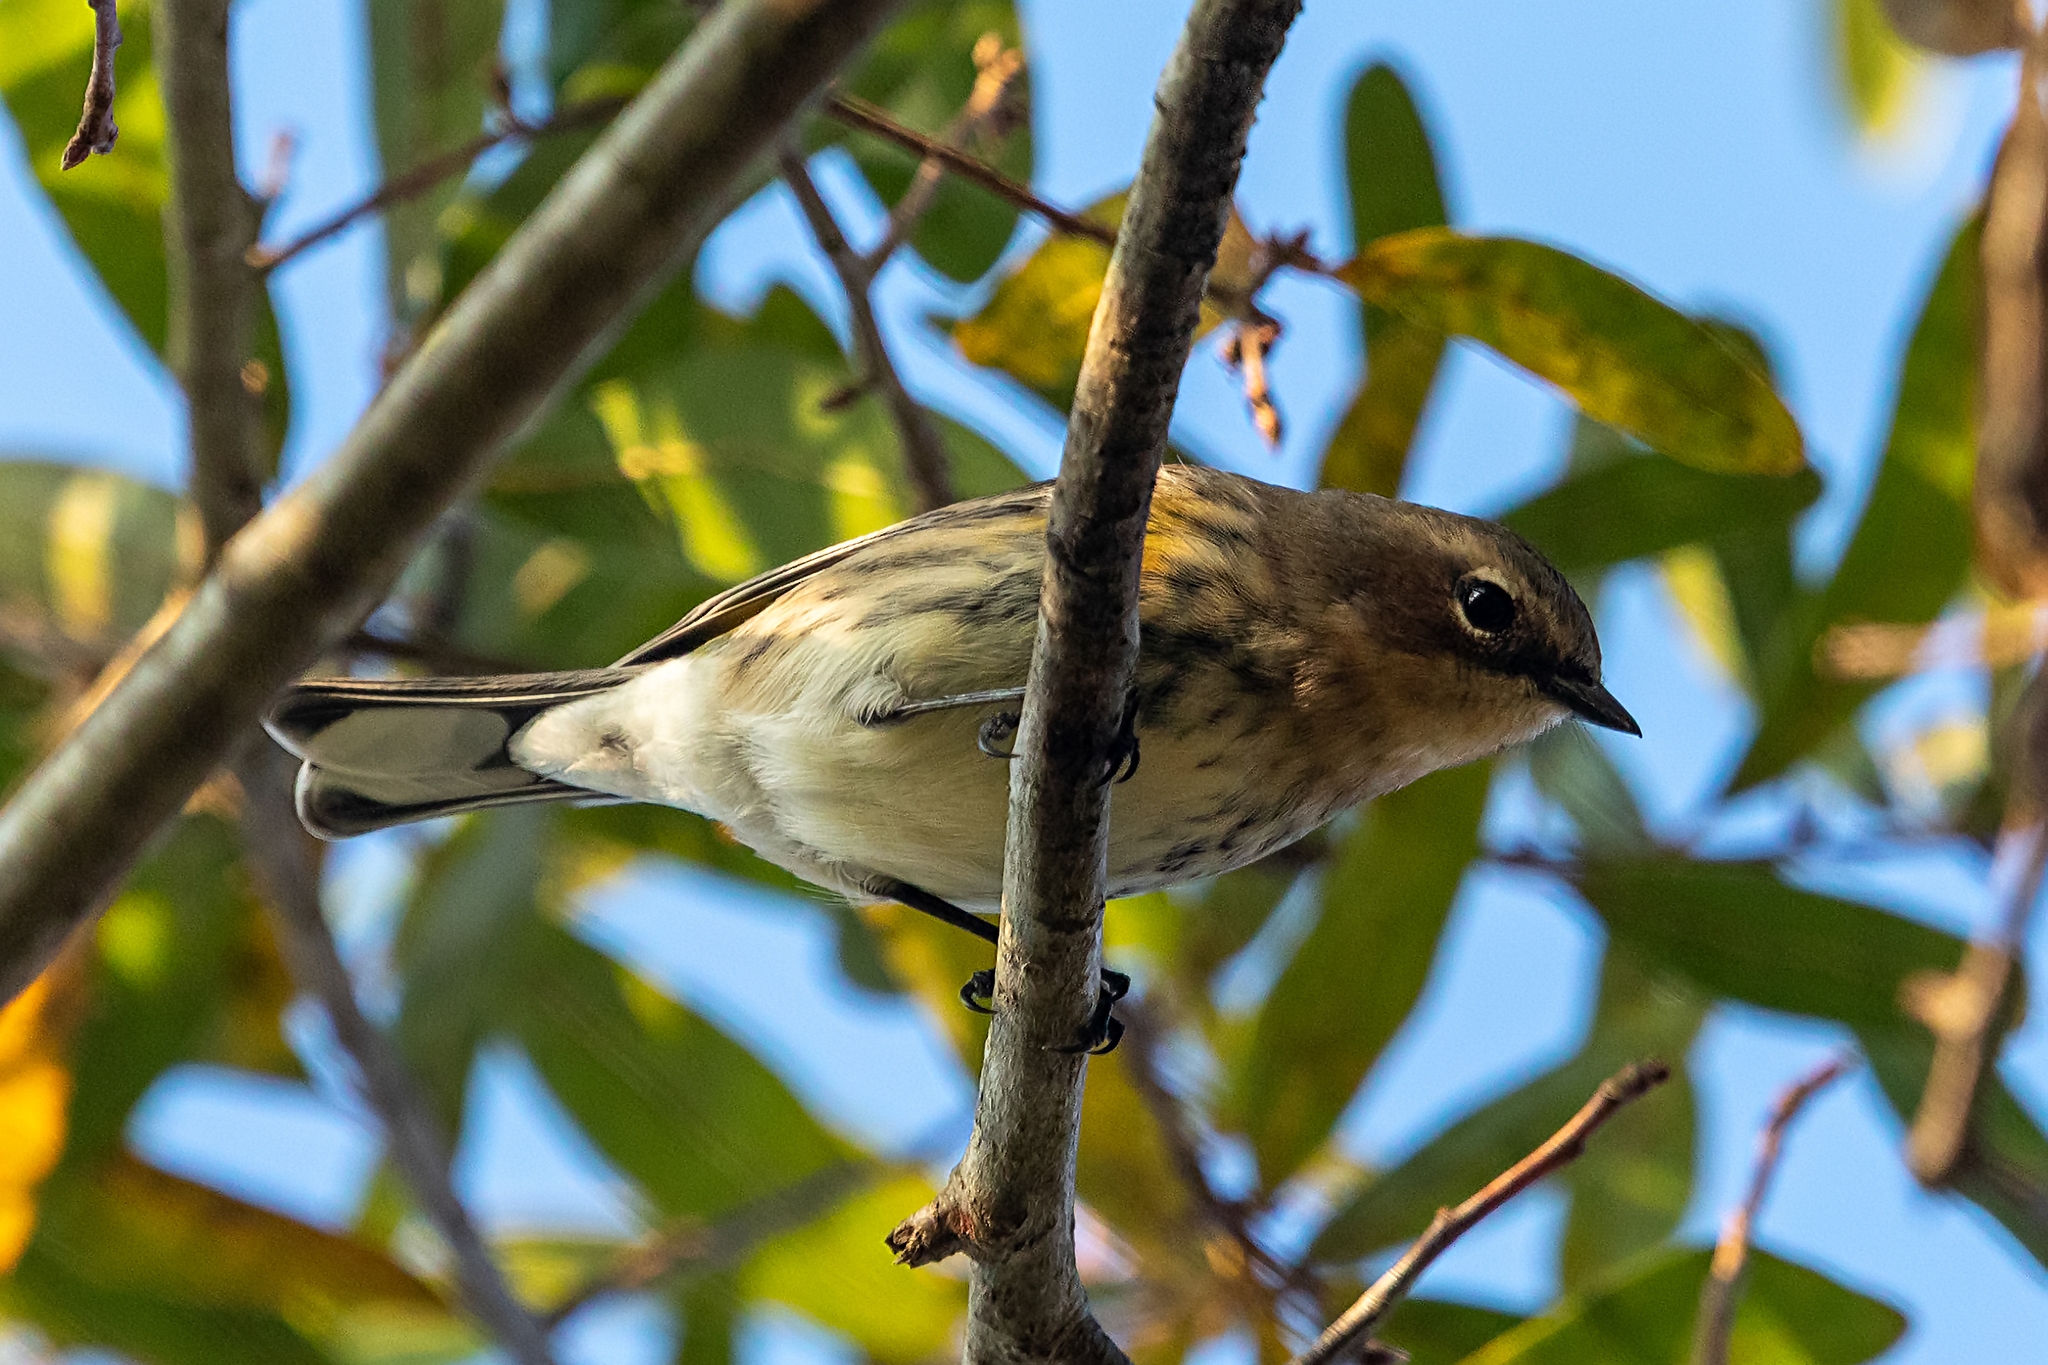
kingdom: Animalia
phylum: Chordata
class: Aves
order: Passeriformes
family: Parulidae
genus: Setophaga
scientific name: Setophaga coronata
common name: Myrtle warbler
